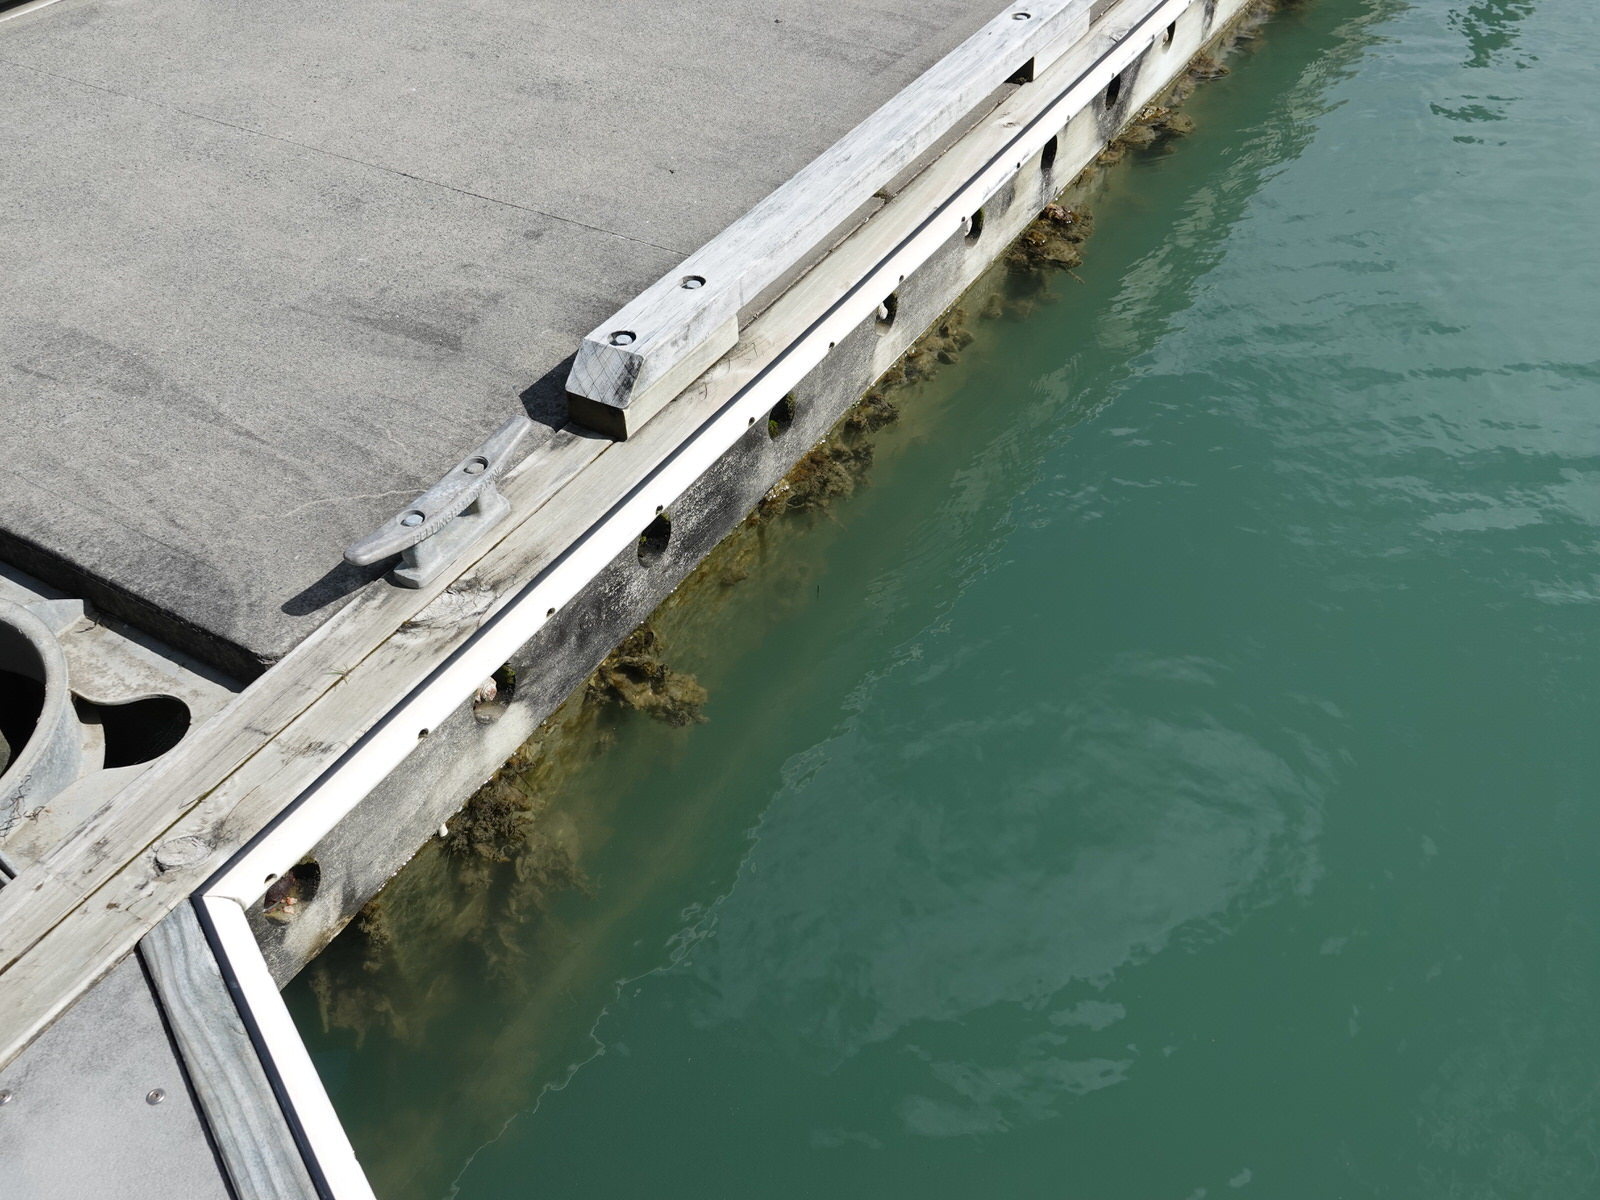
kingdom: Animalia
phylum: Chordata
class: Ascidiacea
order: Stolidobranchia
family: Styelidae
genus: Styela
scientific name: Styela plicata
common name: Pleated tunicate
